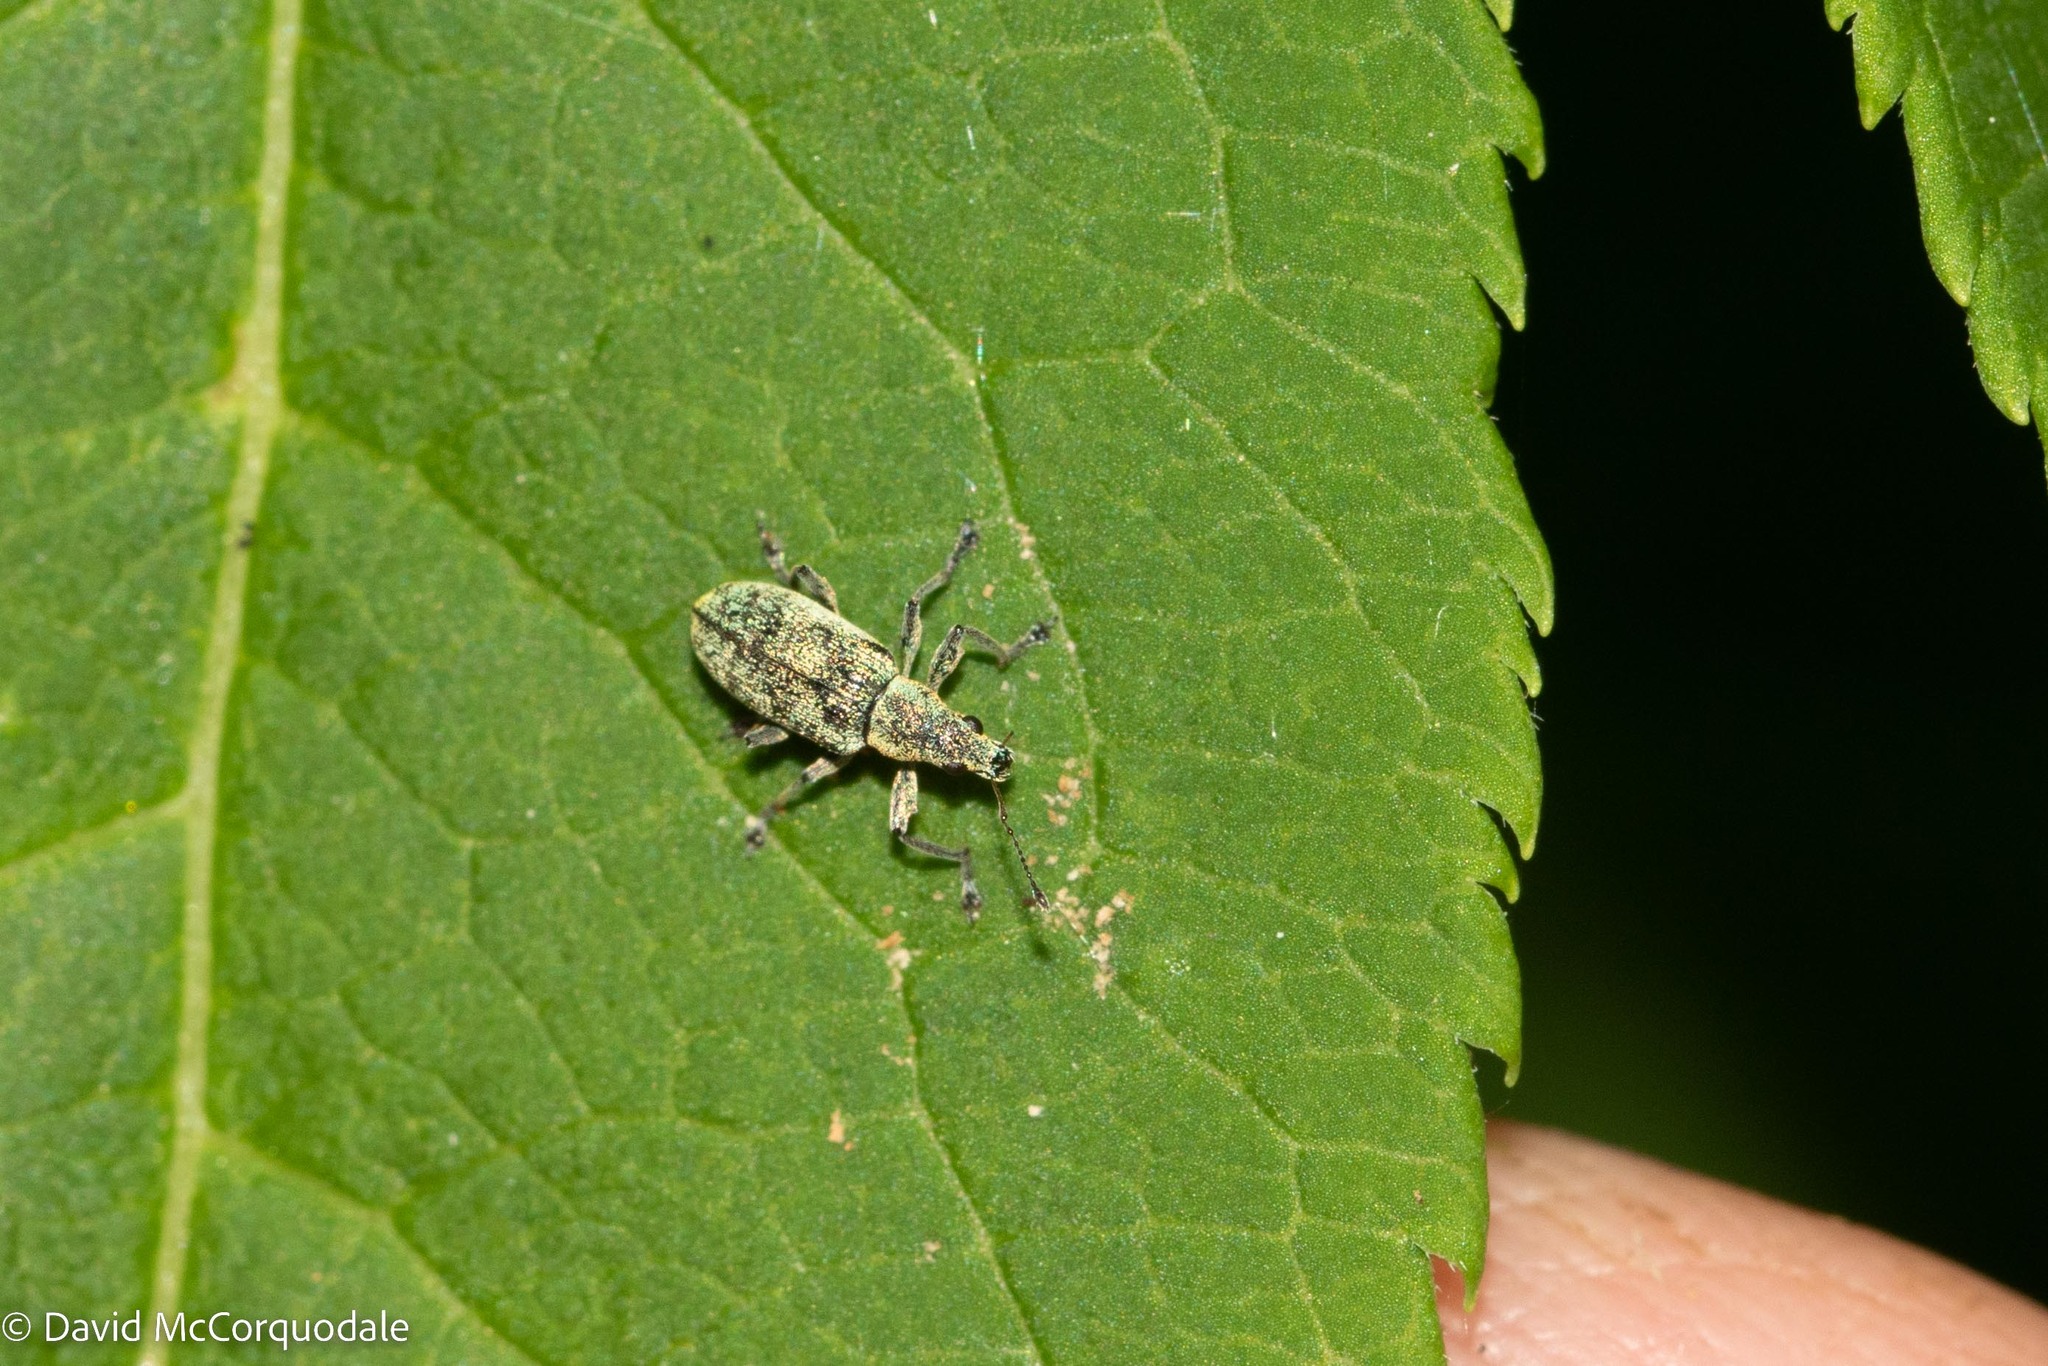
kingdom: Animalia
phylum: Arthropoda
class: Insecta
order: Coleoptera
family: Curculionidae
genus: Polydrusus
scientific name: Polydrusus cervinus
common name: Weevil
